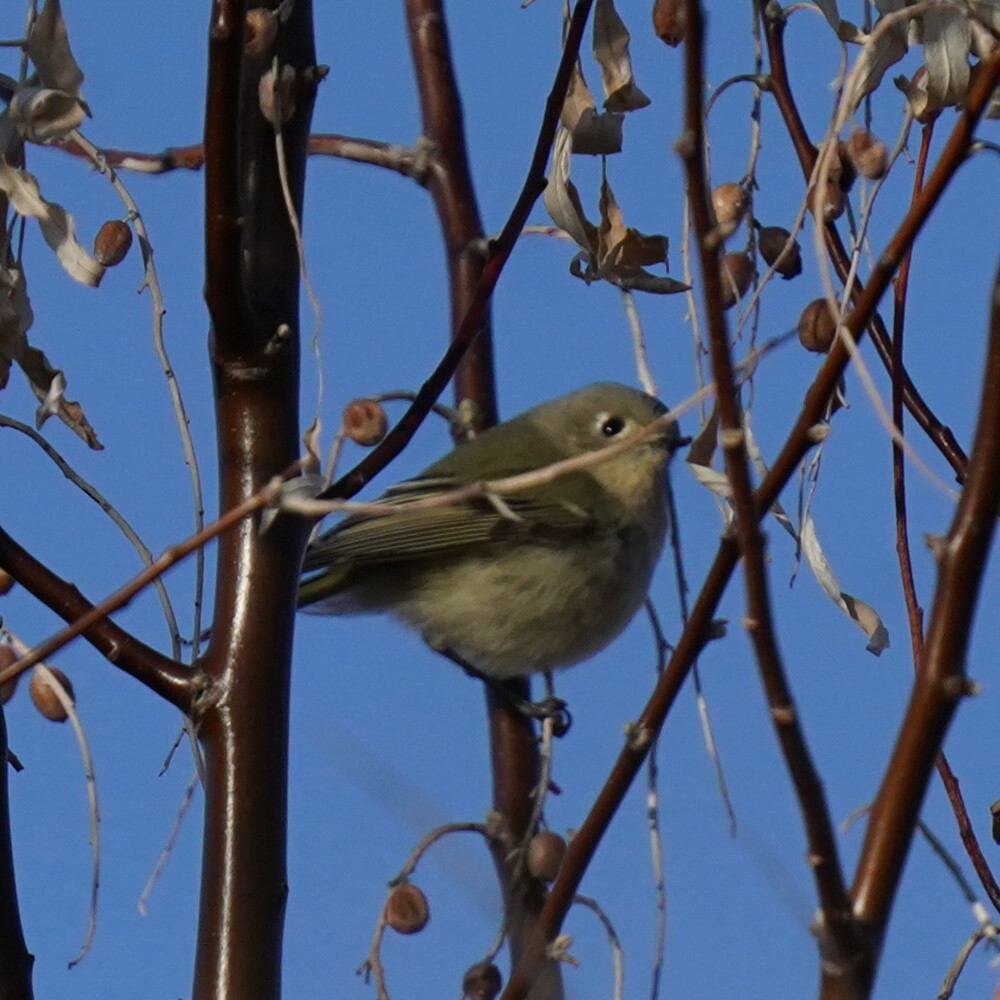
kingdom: Animalia
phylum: Chordata
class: Aves
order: Passeriformes
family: Regulidae
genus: Regulus
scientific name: Regulus calendula
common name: Ruby-crowned kinglet
